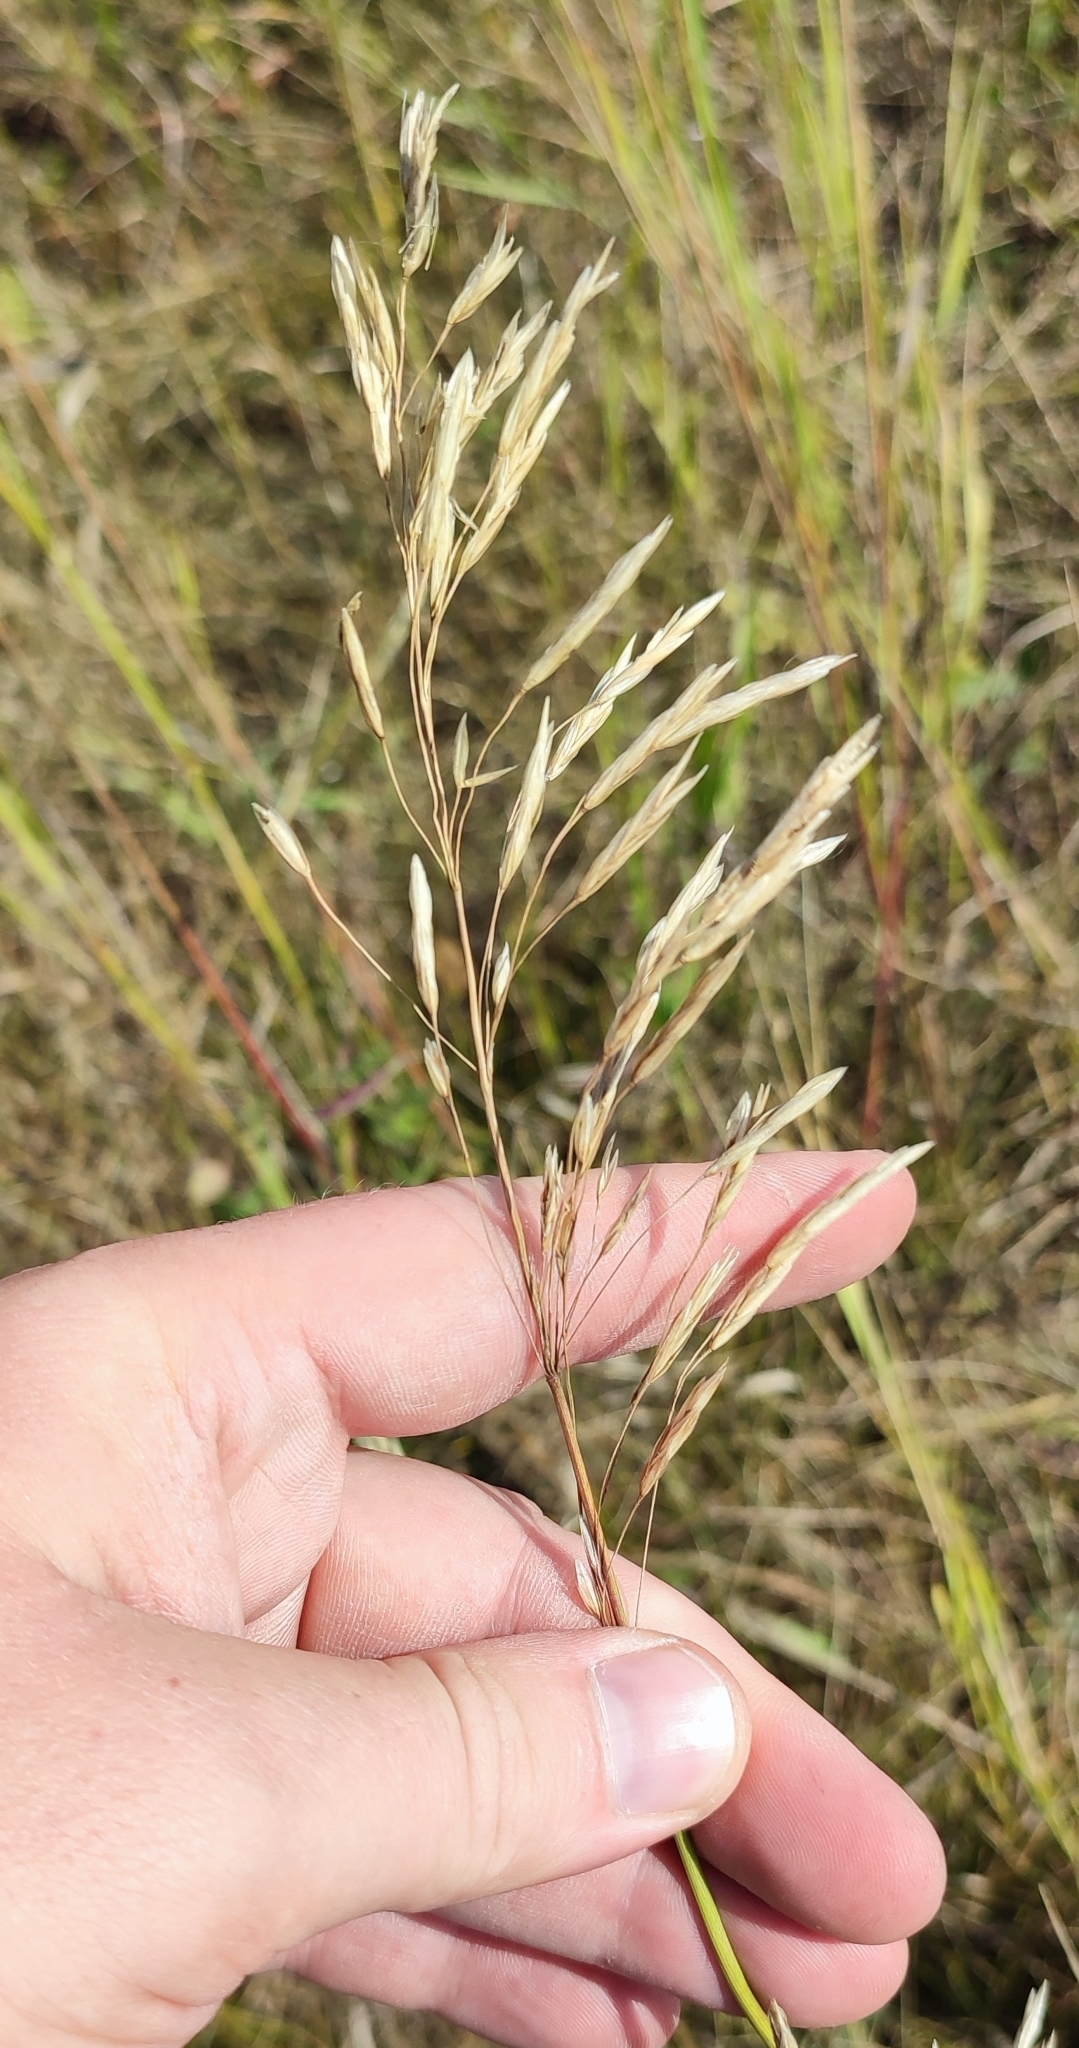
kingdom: Plantae
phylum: Tracheophyta
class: Liliopsida
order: Poales
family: Poaceae
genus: Bromus
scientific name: Bromus inermis
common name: Smooth brome
